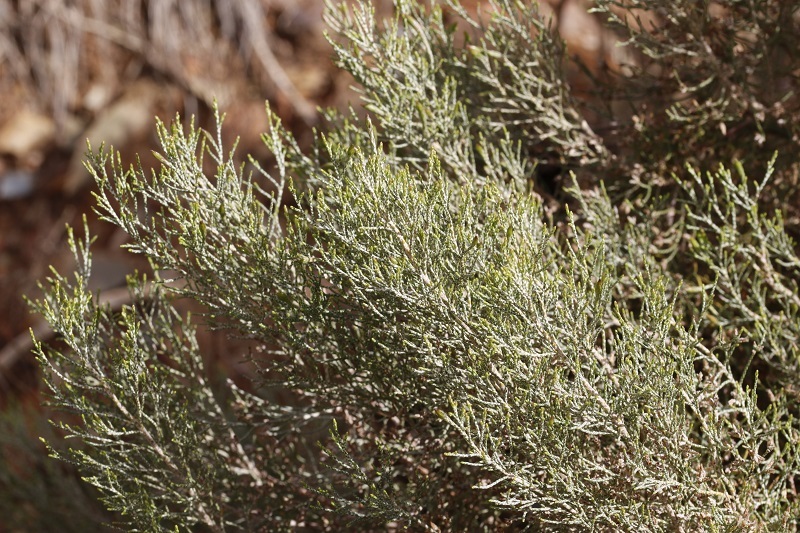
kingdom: Plantae
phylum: Tracheophyta
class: Magnoliopsida
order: Asterales
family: Asteraceae
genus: Dicerothamnus
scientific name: Dicerothamnus rhinocerotis
